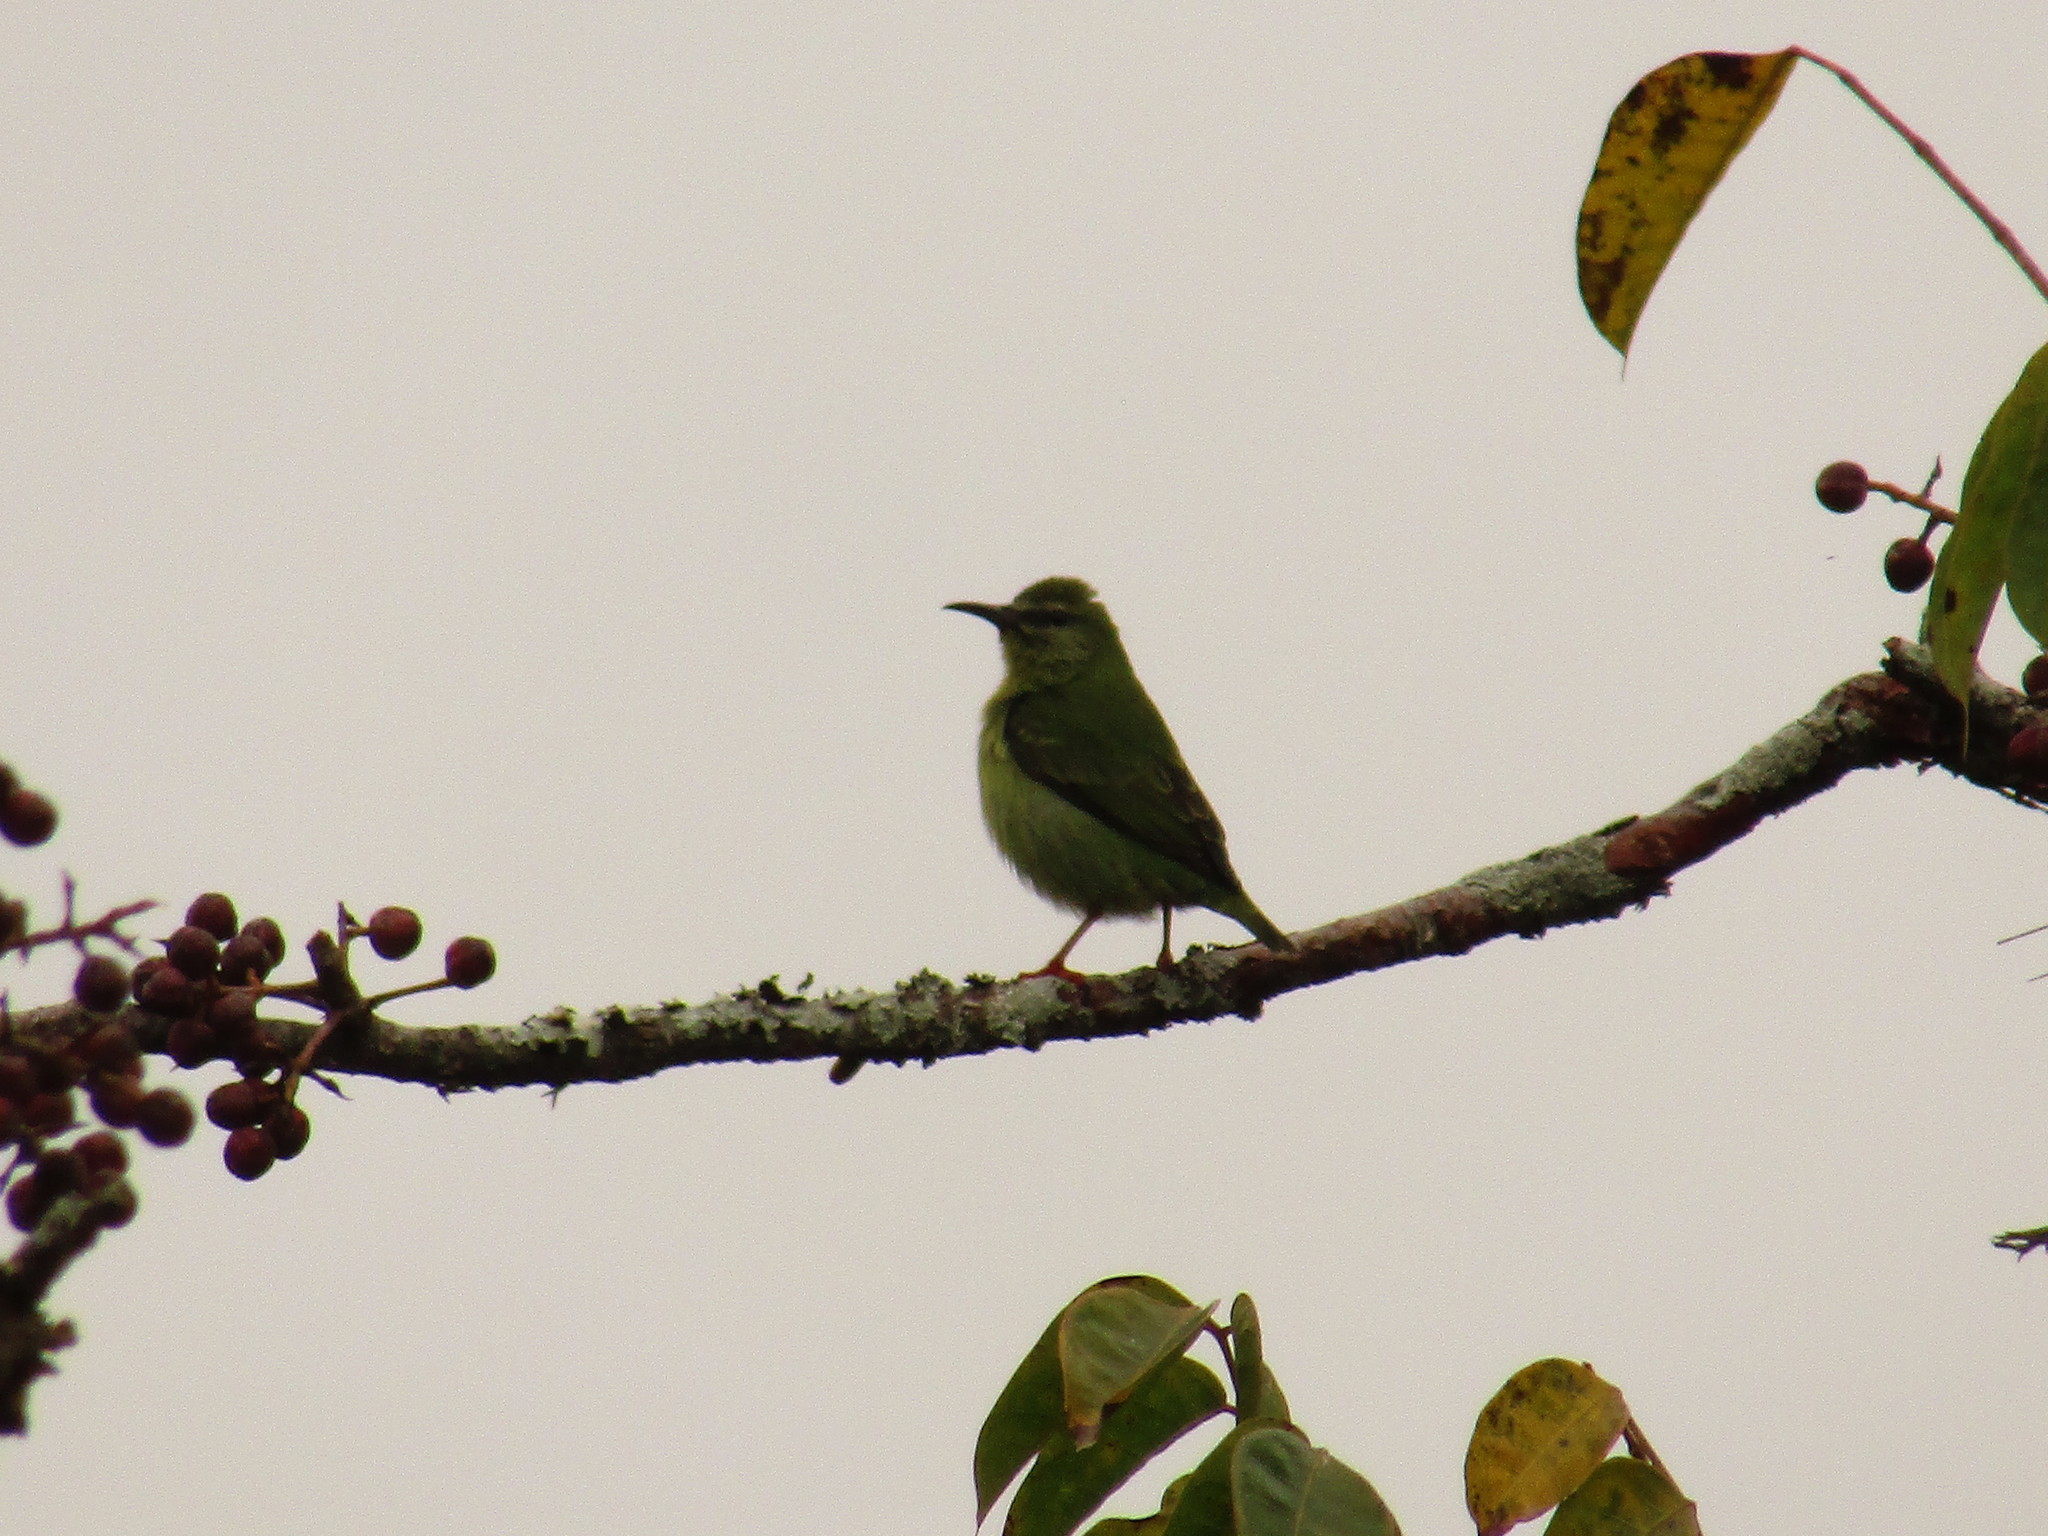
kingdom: Animalia
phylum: Chordata
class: Aves
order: Passeriformes
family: Thraupidae
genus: Cyanerpes
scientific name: Cyanerpes cyaneus
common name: Red-legged honeycreeper
